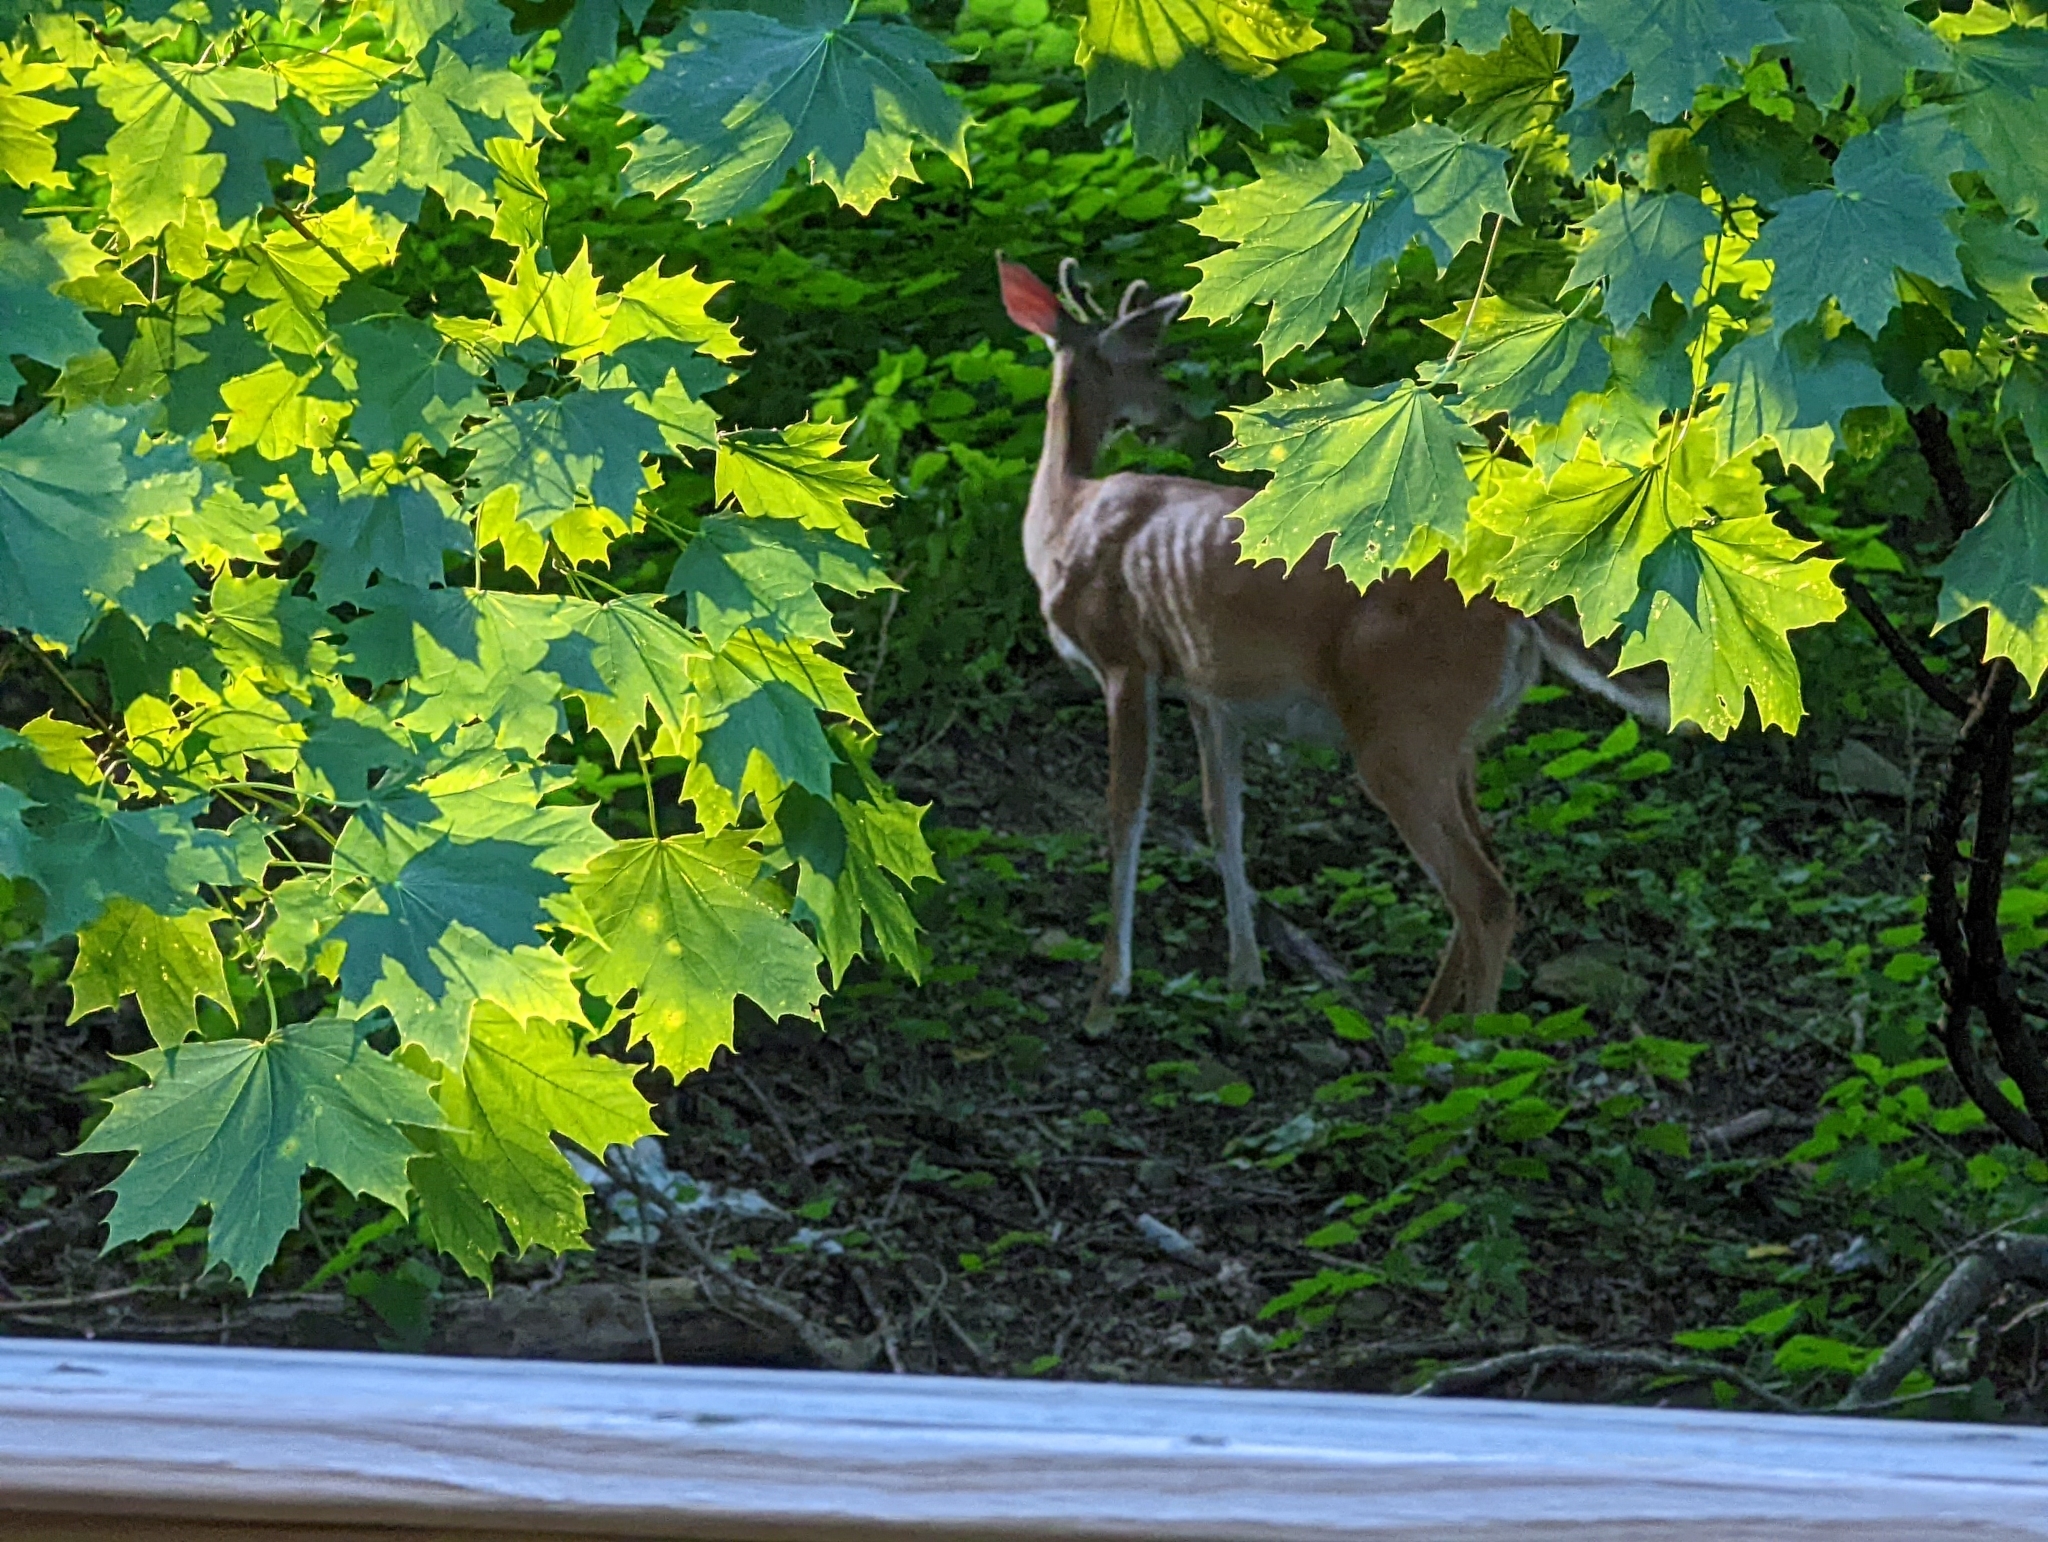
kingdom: Animalia
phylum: Chordata
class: Mammalia
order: Artiodactyla
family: Cervidae
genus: Odocoileus
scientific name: Odocoileus virginianus
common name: White-tailed deer
